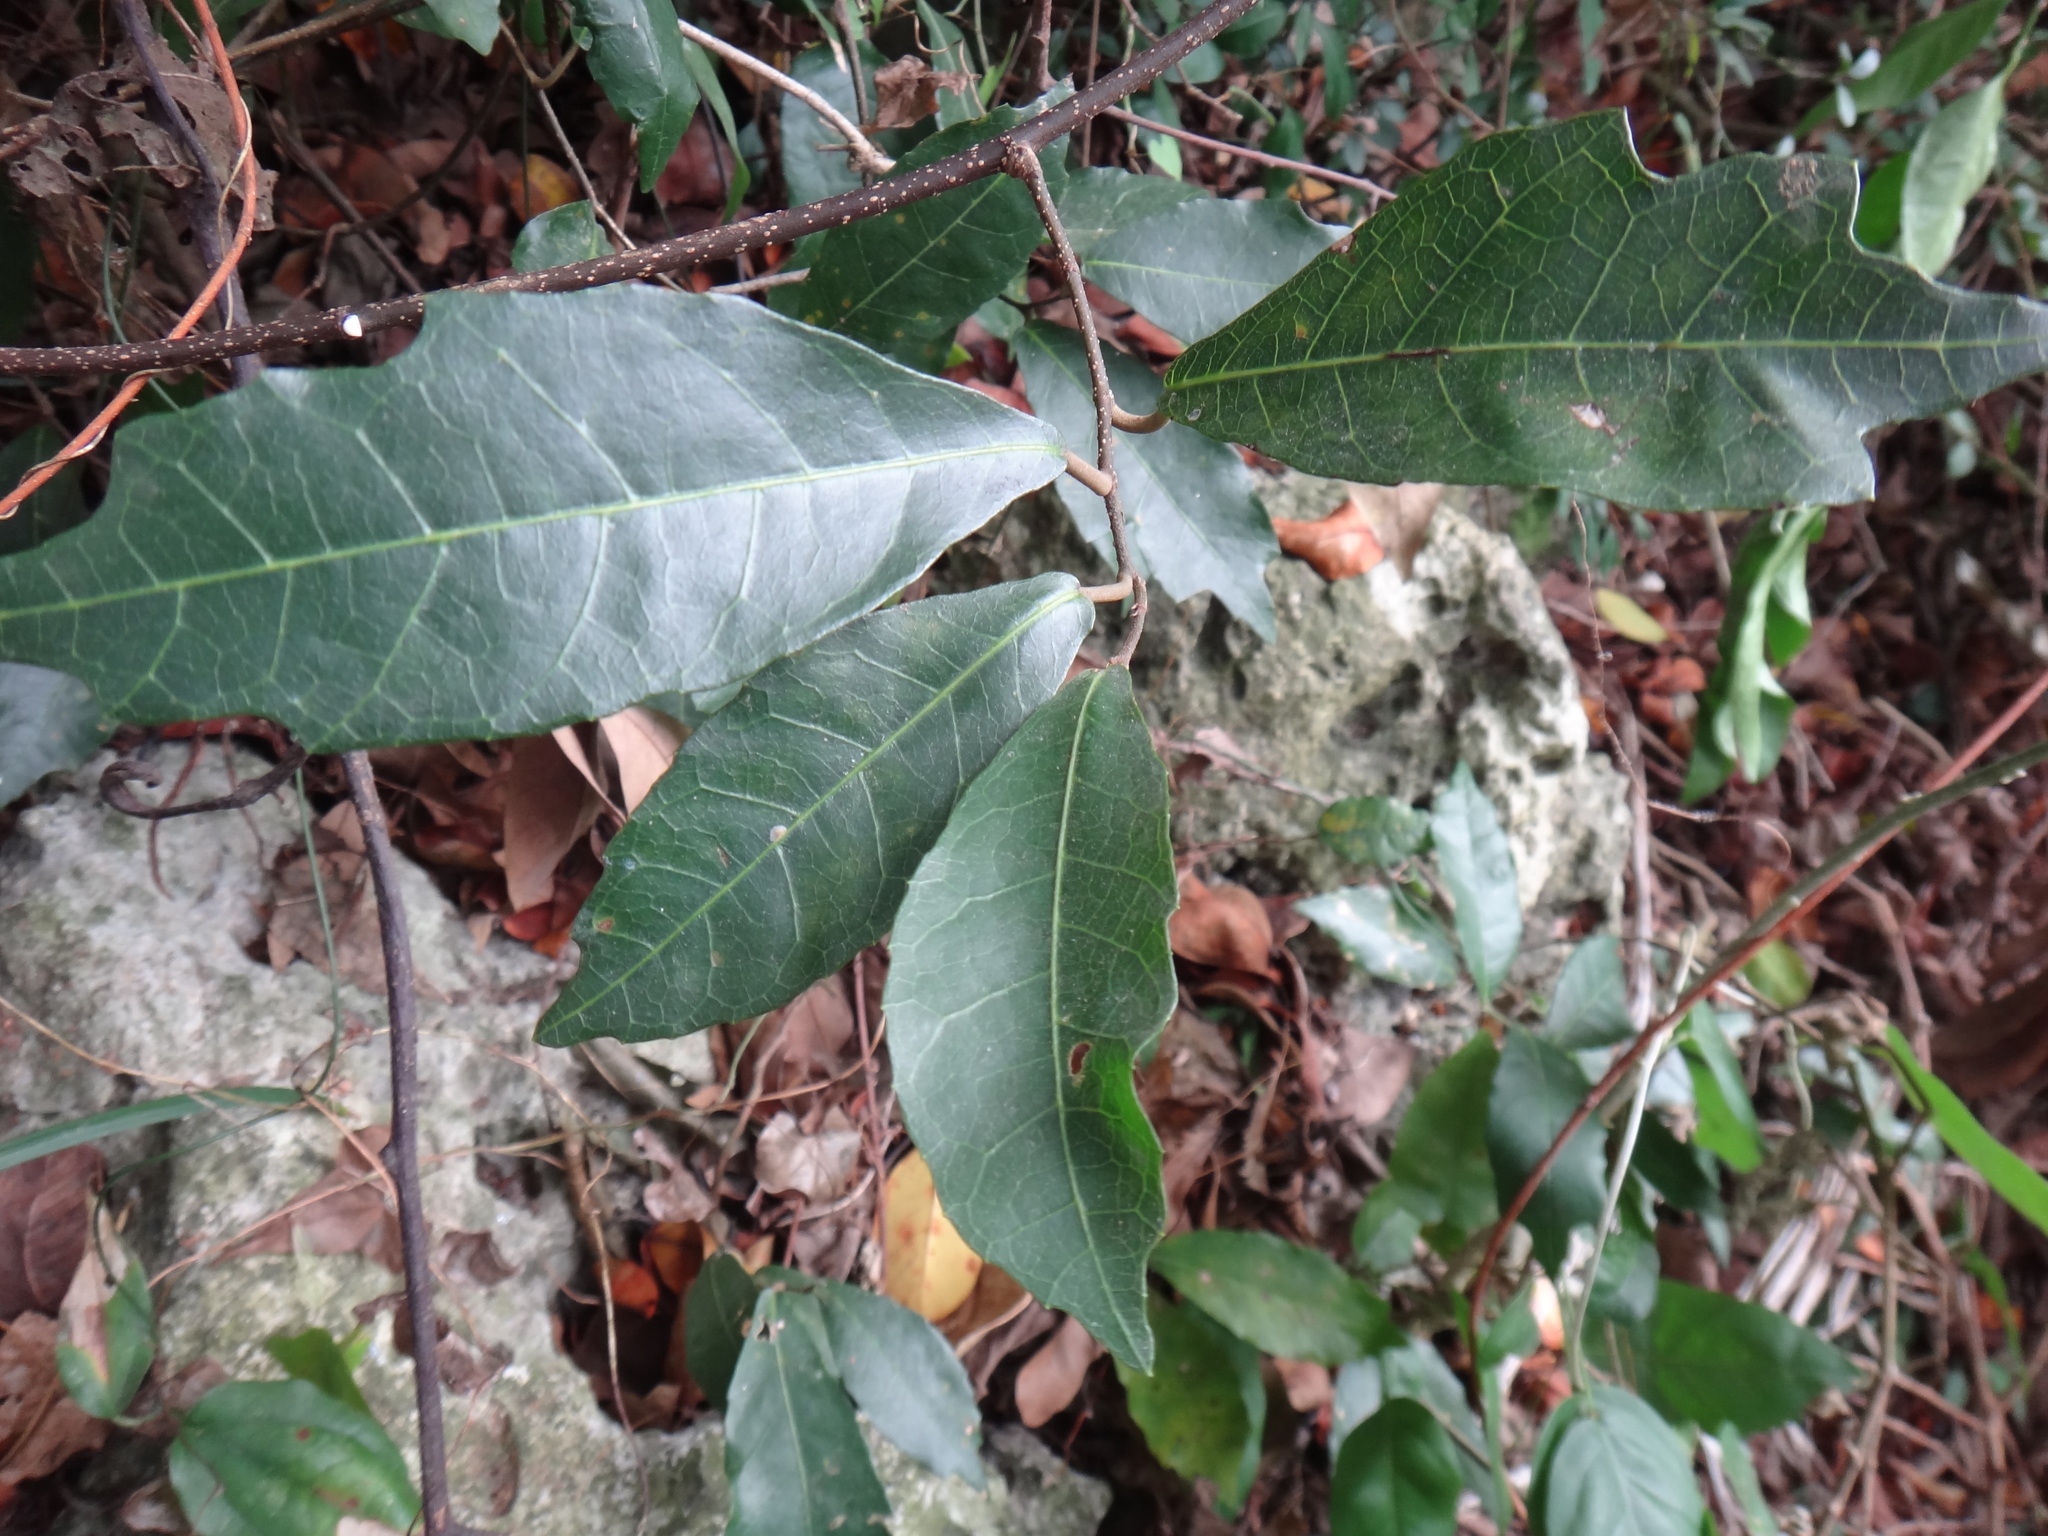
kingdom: Plantae
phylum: Tracheophyta
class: Magnoliopsida
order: Rosales
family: Moraceae
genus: Malaisia
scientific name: Malaisia scandens
